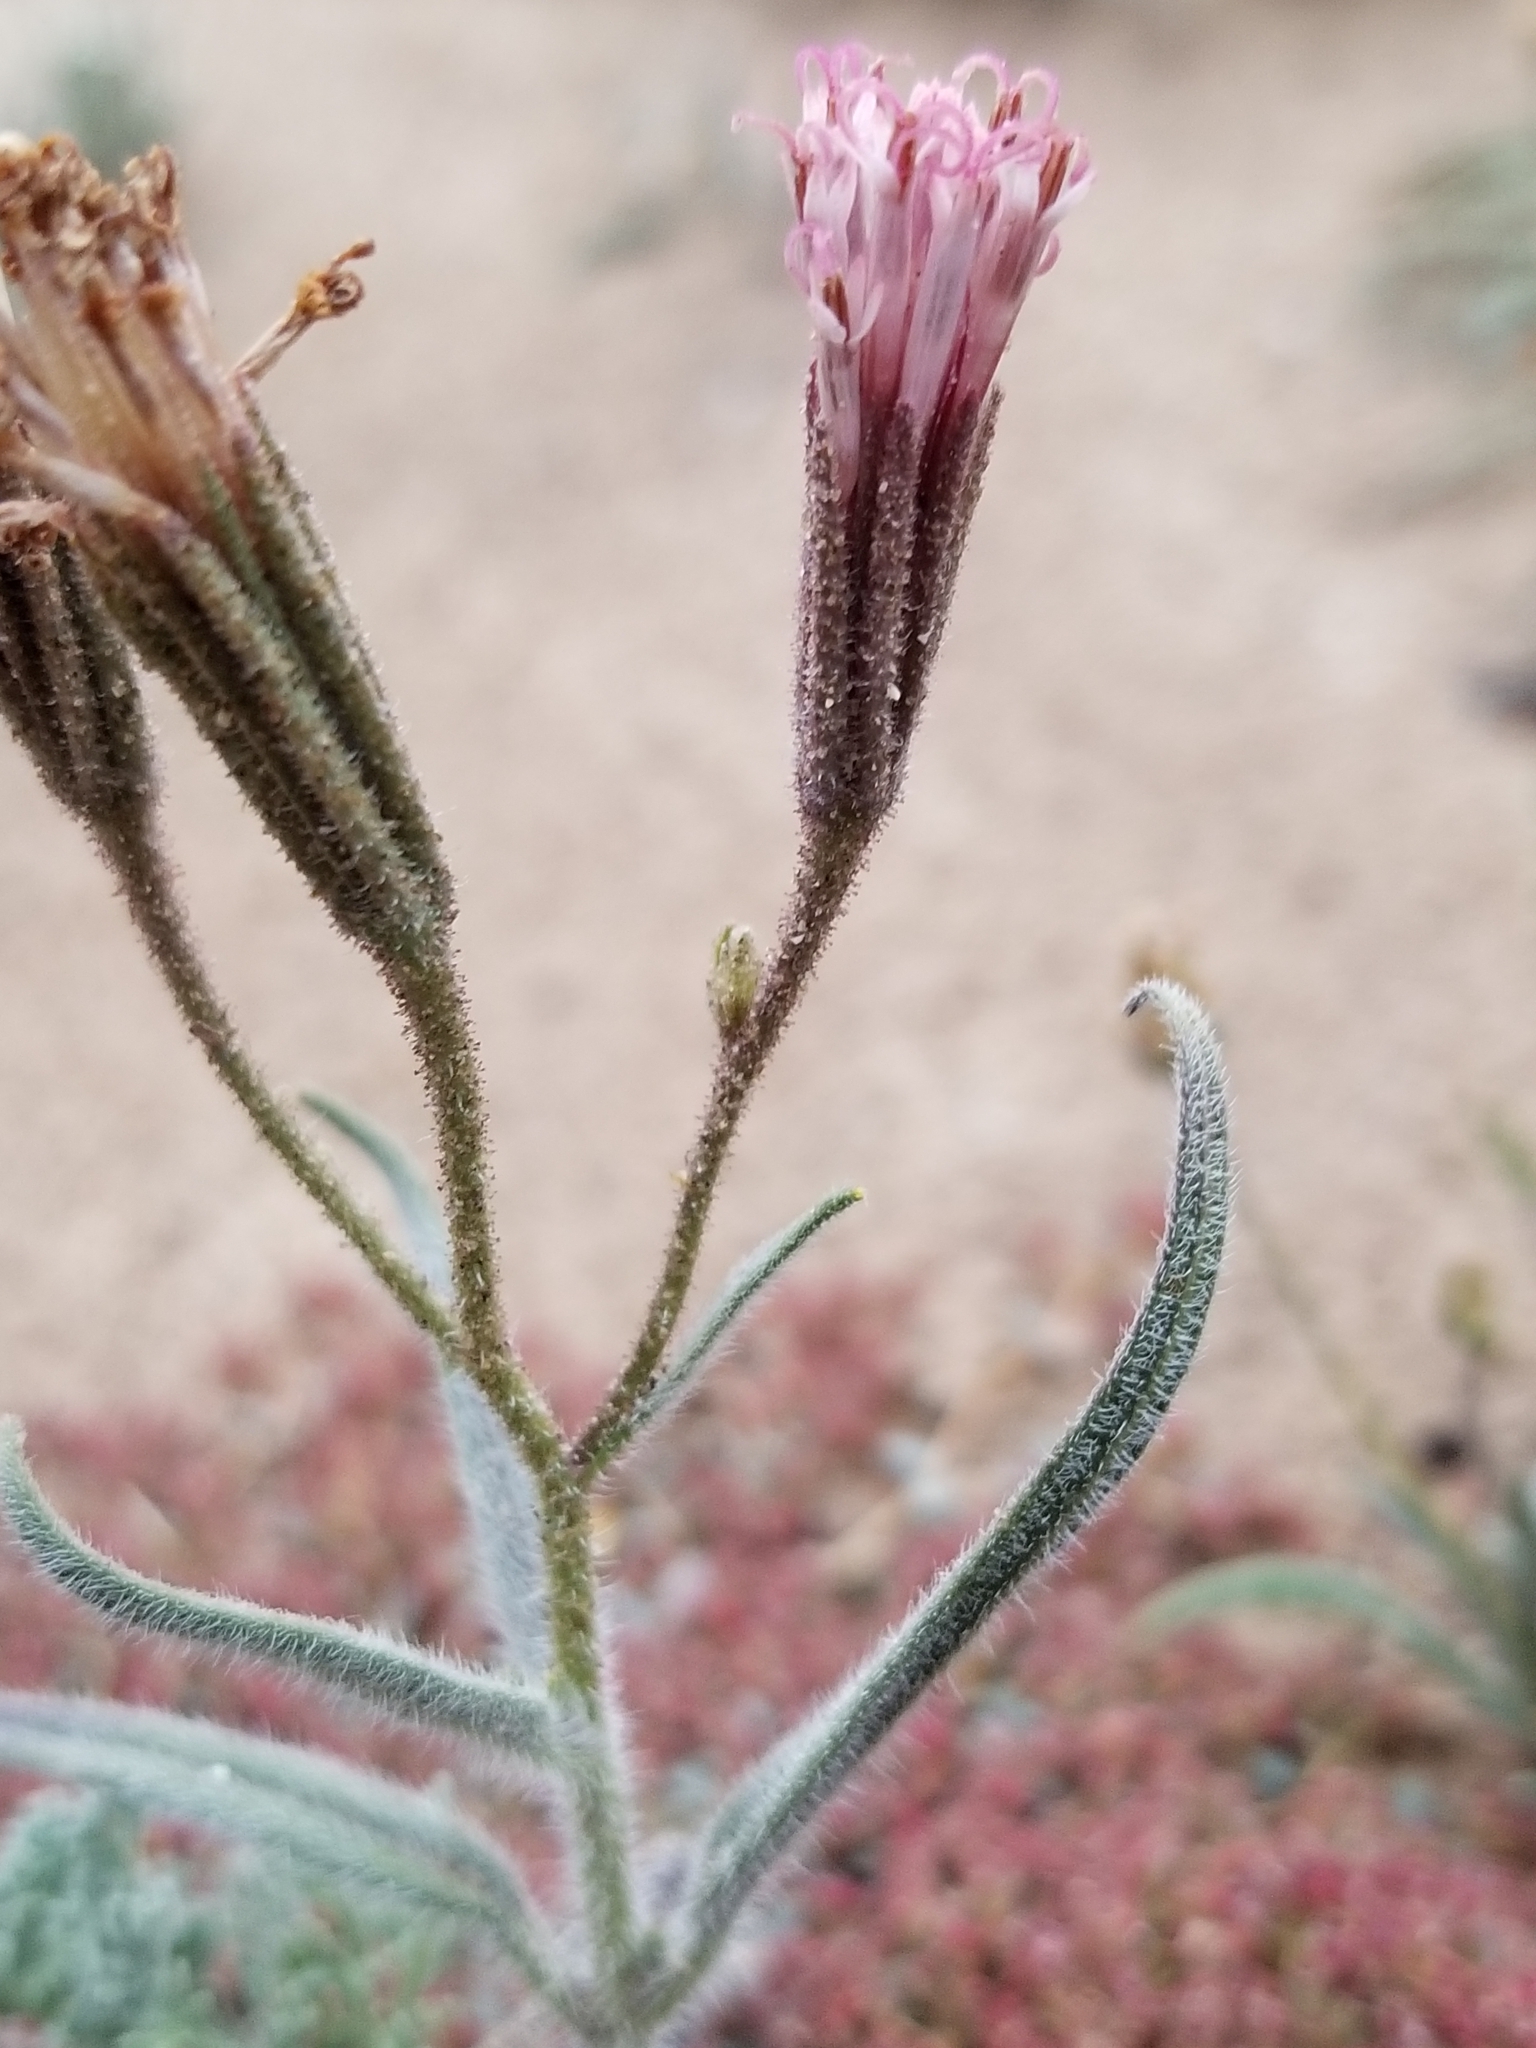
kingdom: Plantae
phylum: Tracheophyta
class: Magnoliopsida
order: Asterales
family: Asteraceae
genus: Palafoxia
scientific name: Palafoxia arida
